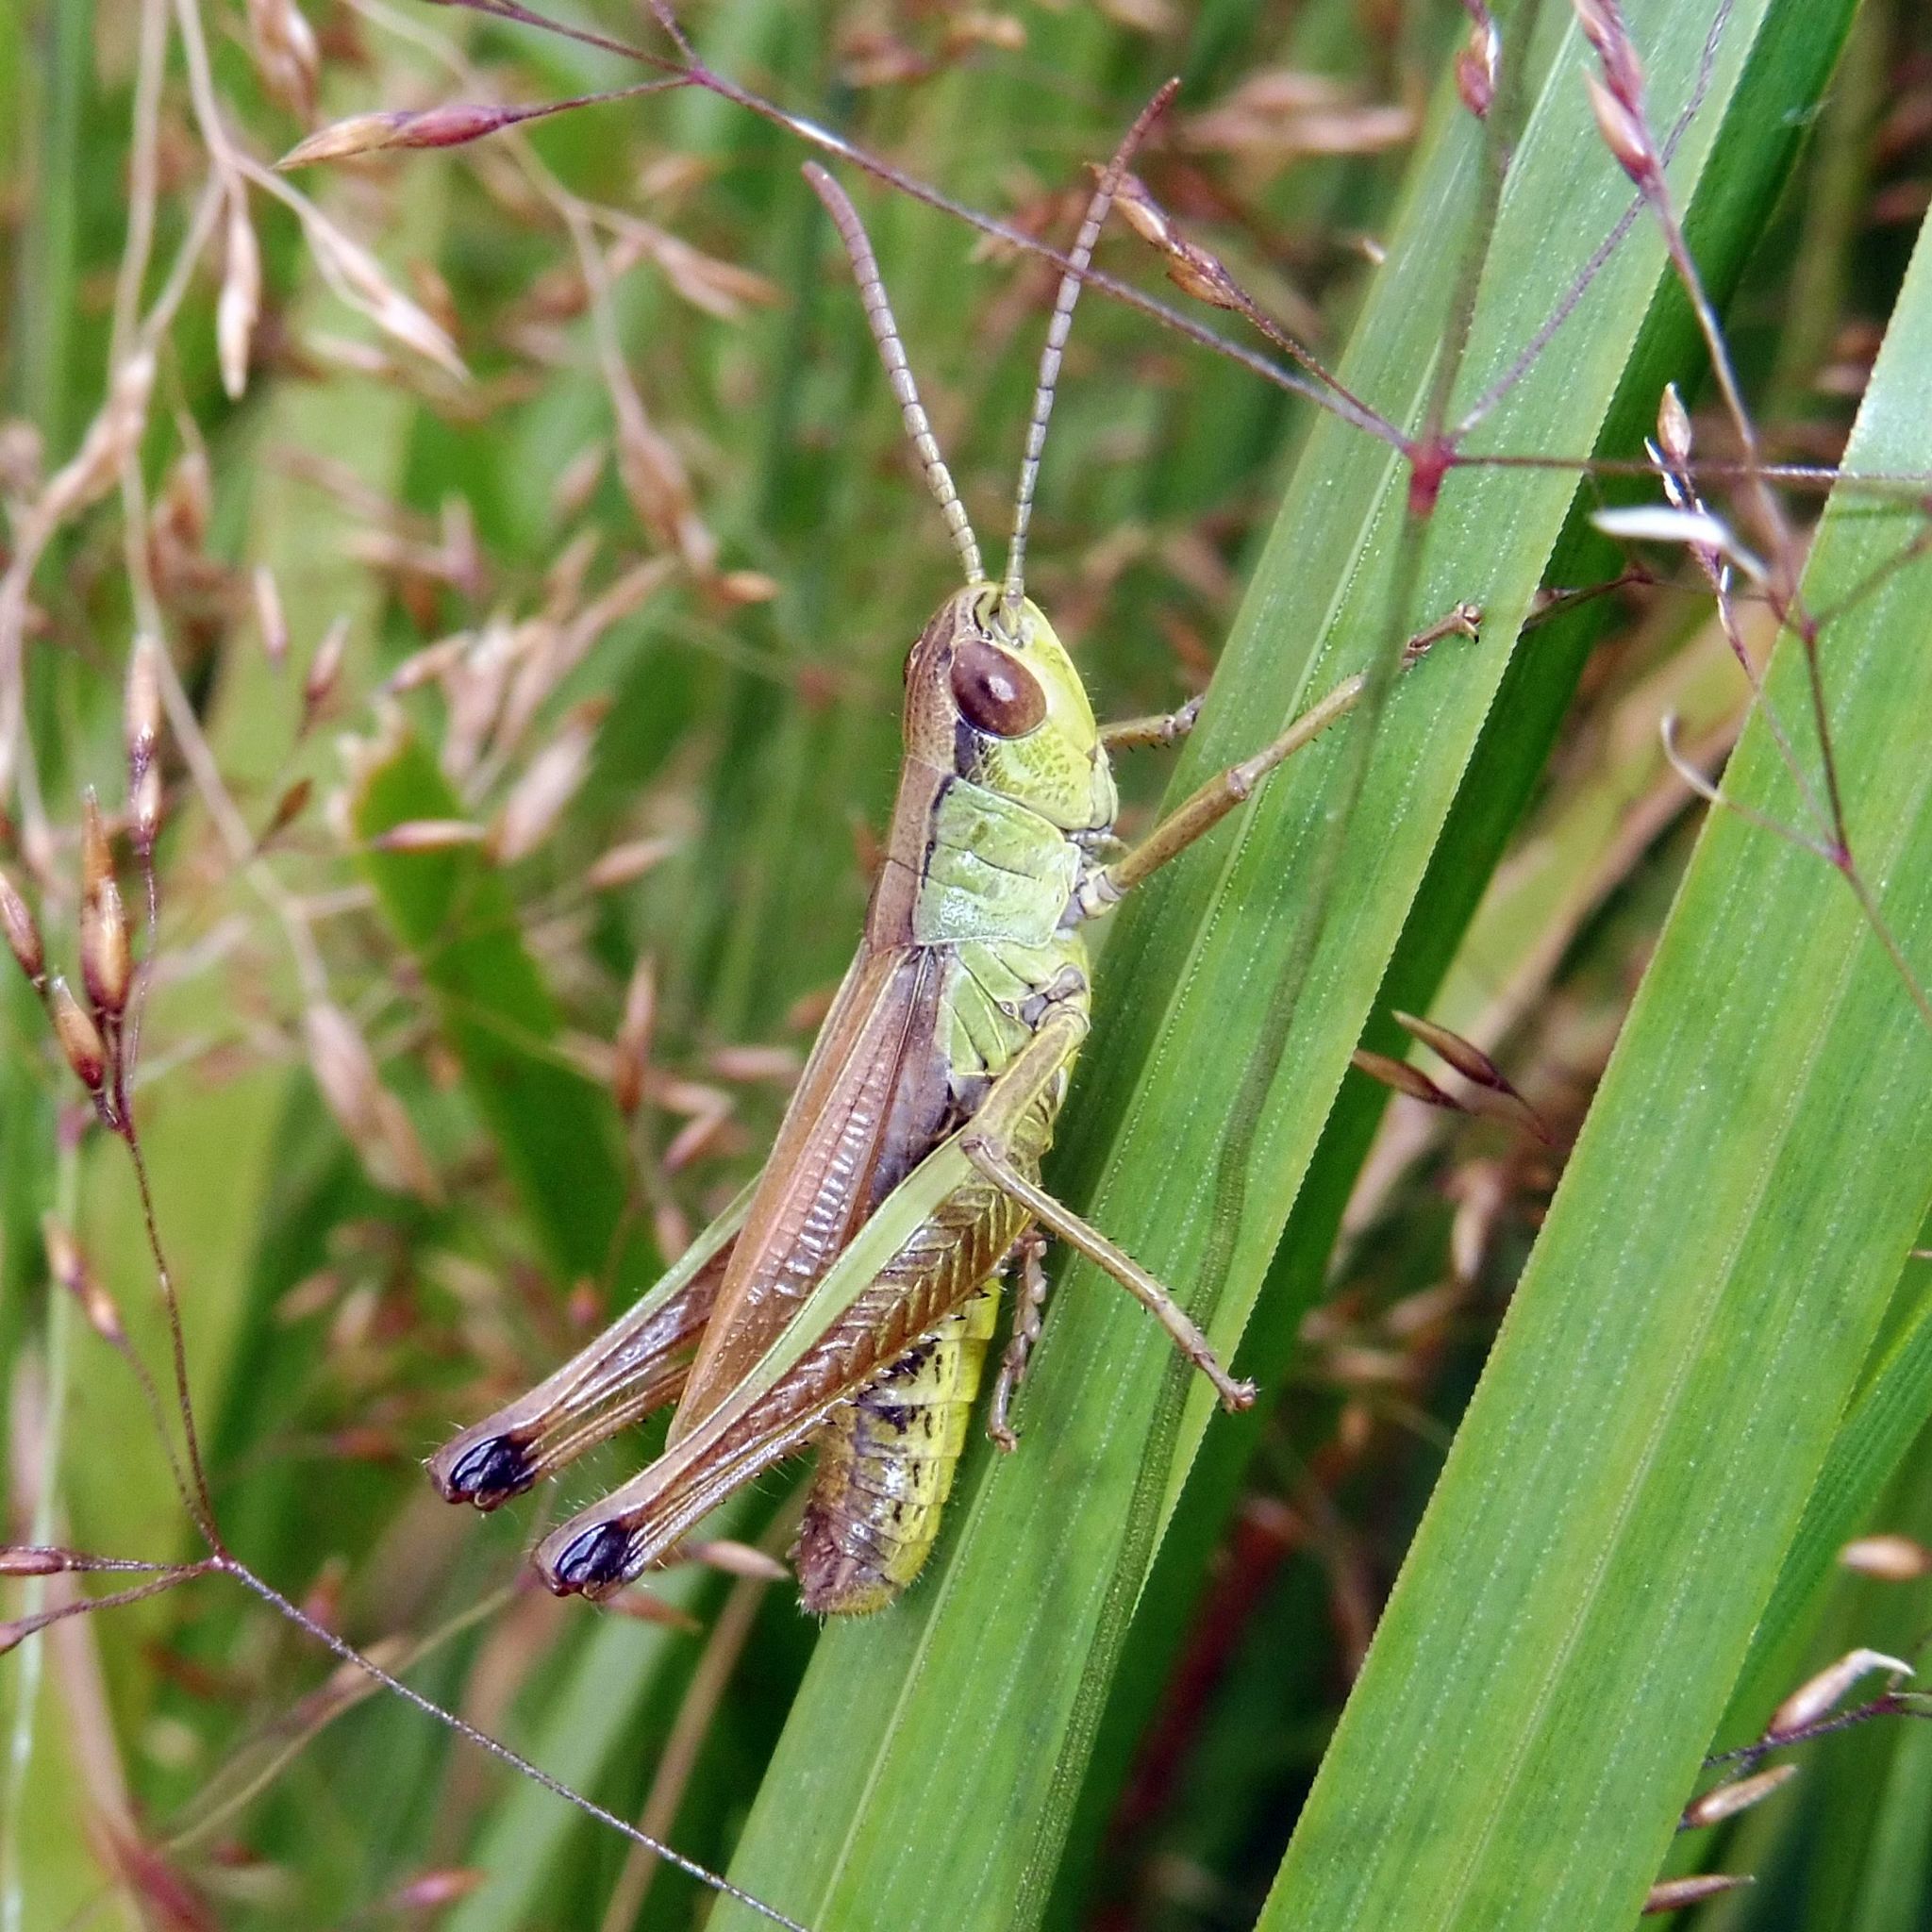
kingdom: Animalia
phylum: Arthropoda
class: Insecta
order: Orthoptera
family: Acrididae
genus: Pseudochorthippus
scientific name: Pseudochorthippus parallelus
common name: Meadow grasshopper
